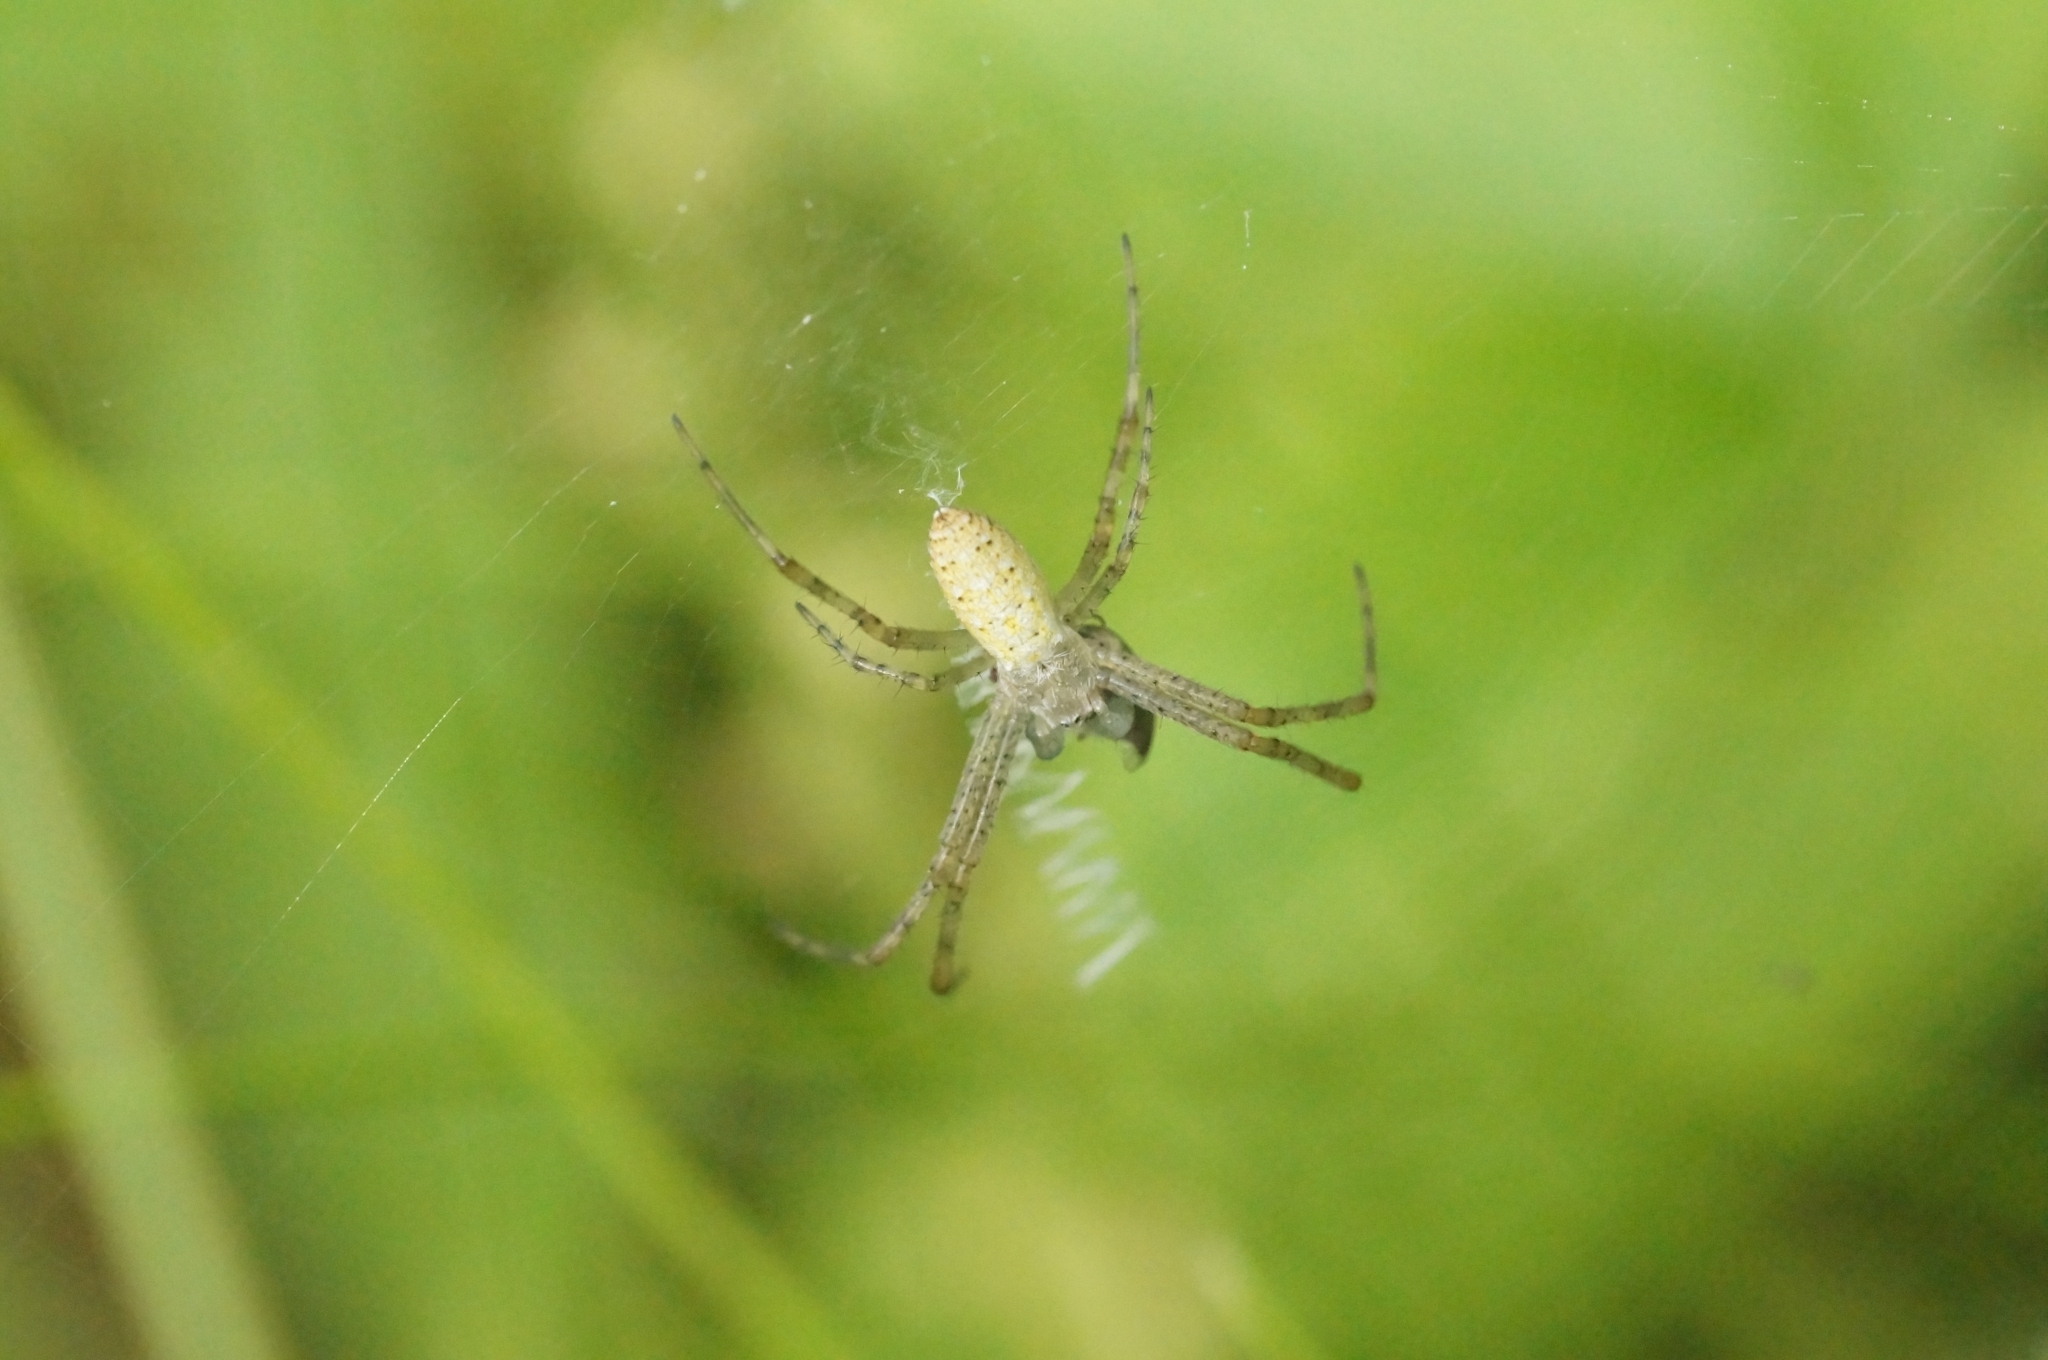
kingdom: Animalia
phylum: Arthropoda
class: Arachnida
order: Araneae
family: Araneidae
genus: Argiope
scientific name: Argiope bruennichi
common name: Wasp spider
